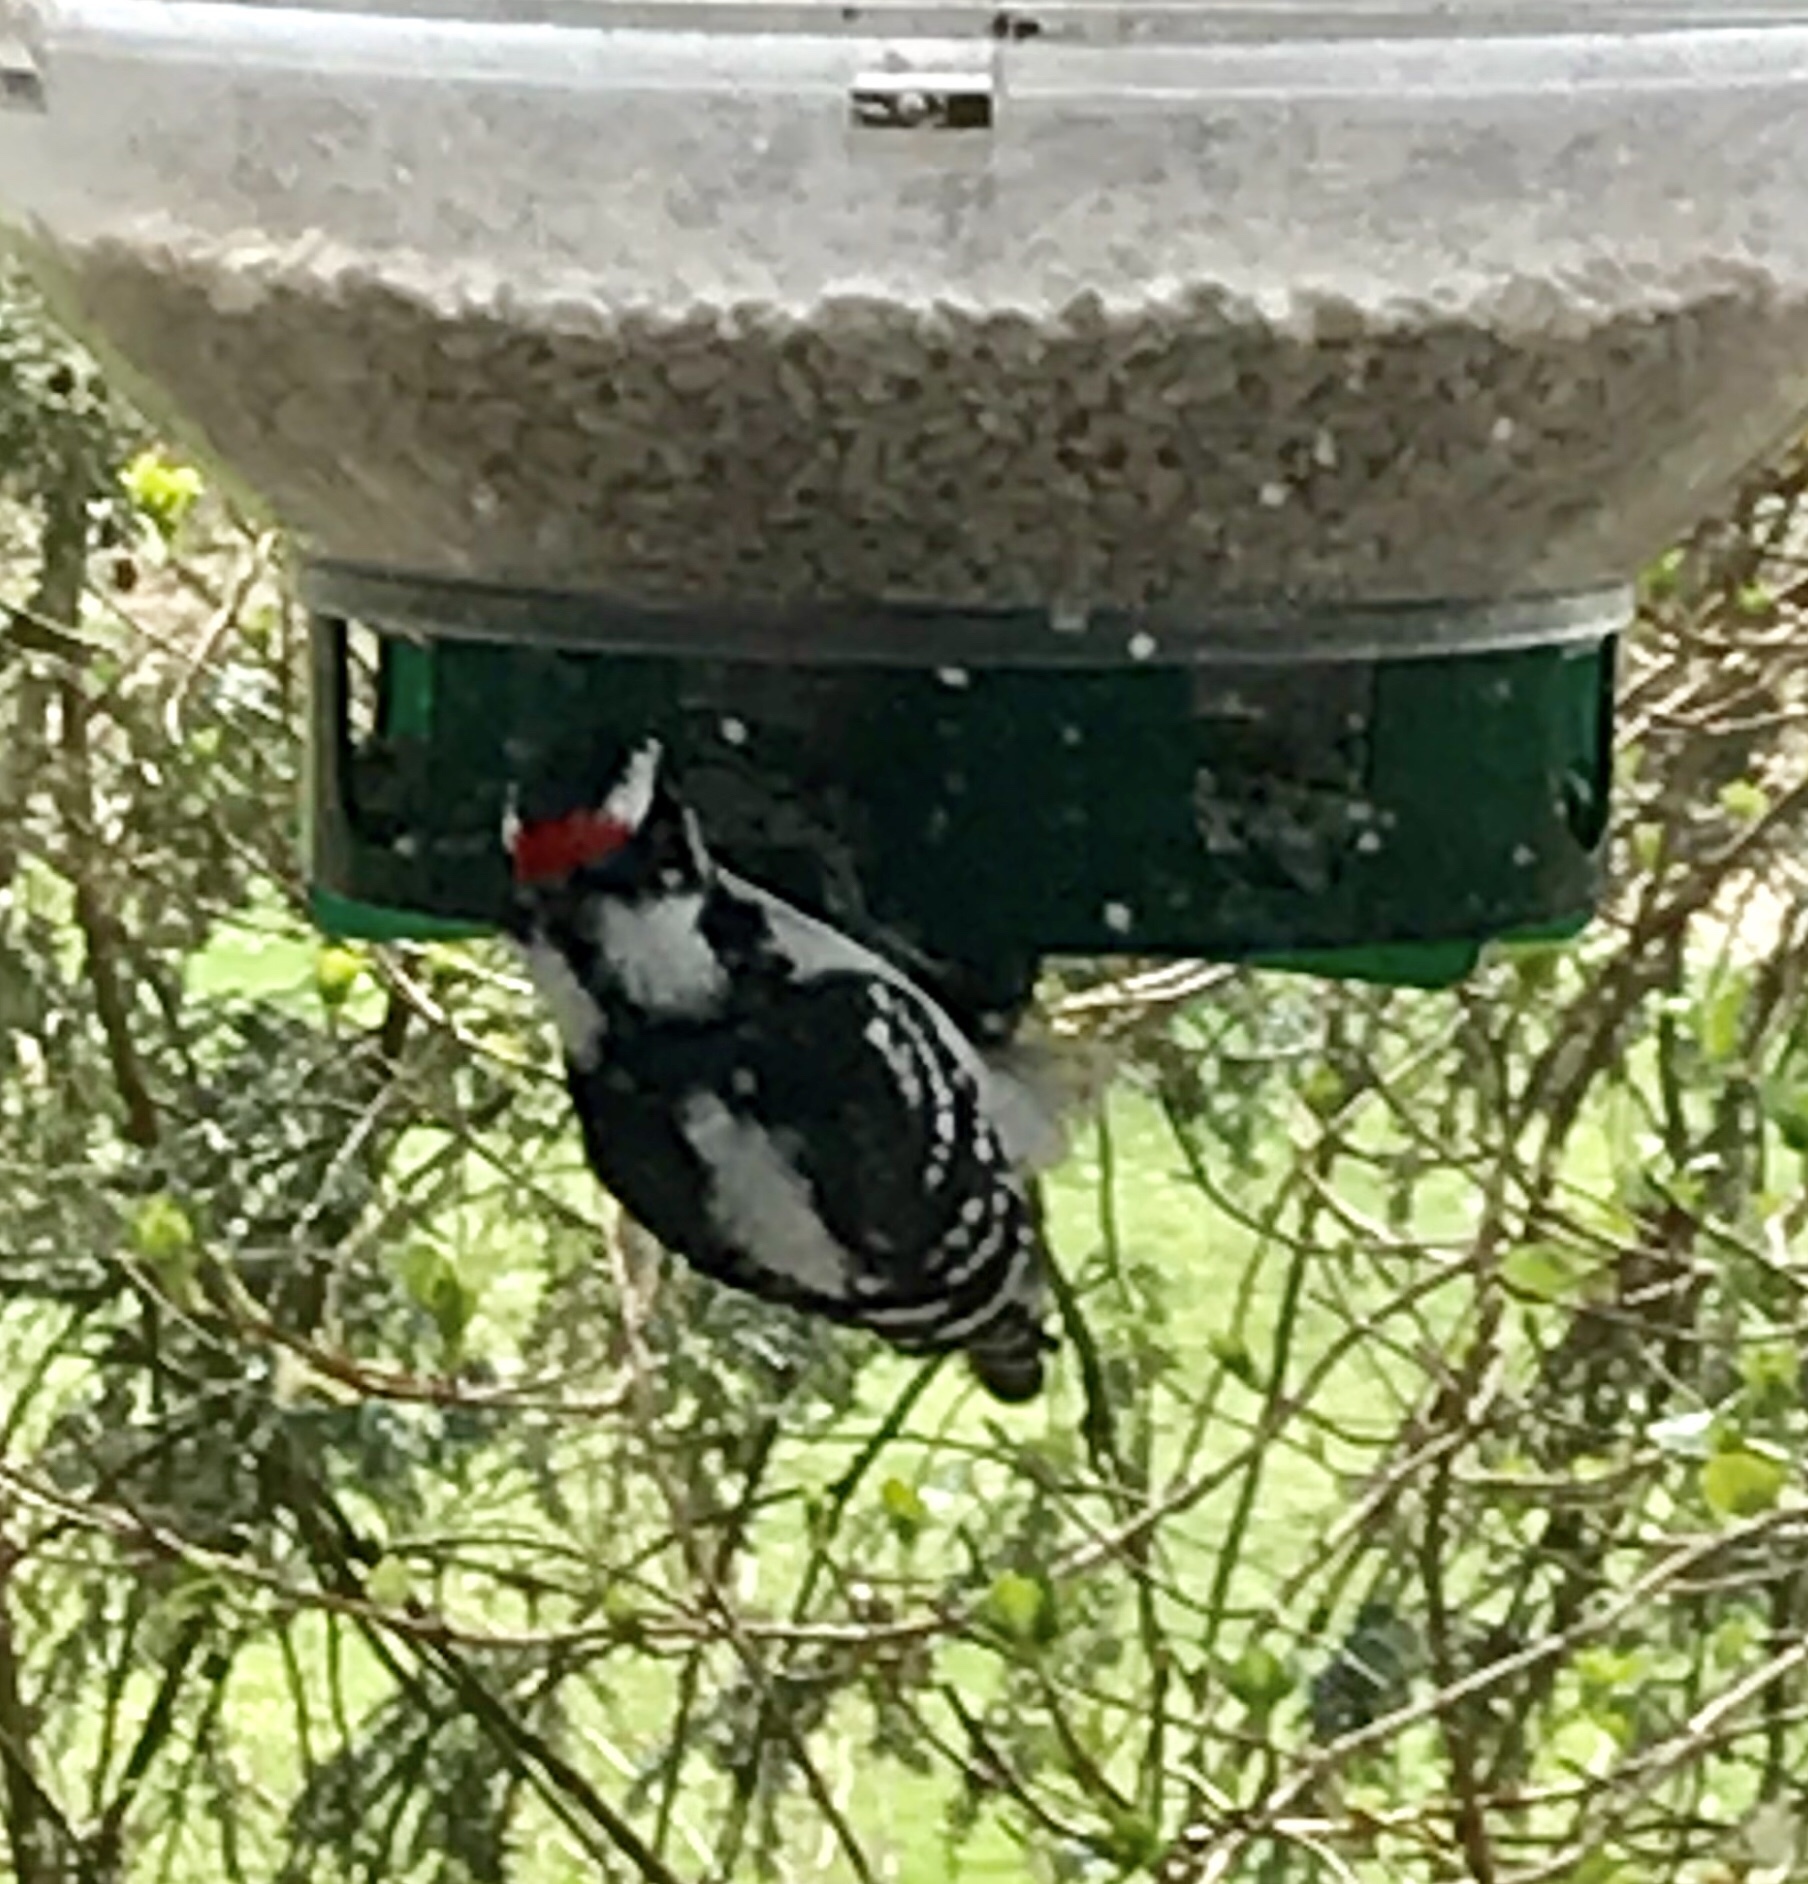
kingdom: Animalia
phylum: Chordata
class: Aves
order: Piciformes
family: Picidae
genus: Dryobates
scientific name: Dryobates pubescens
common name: Downy woodpecker
